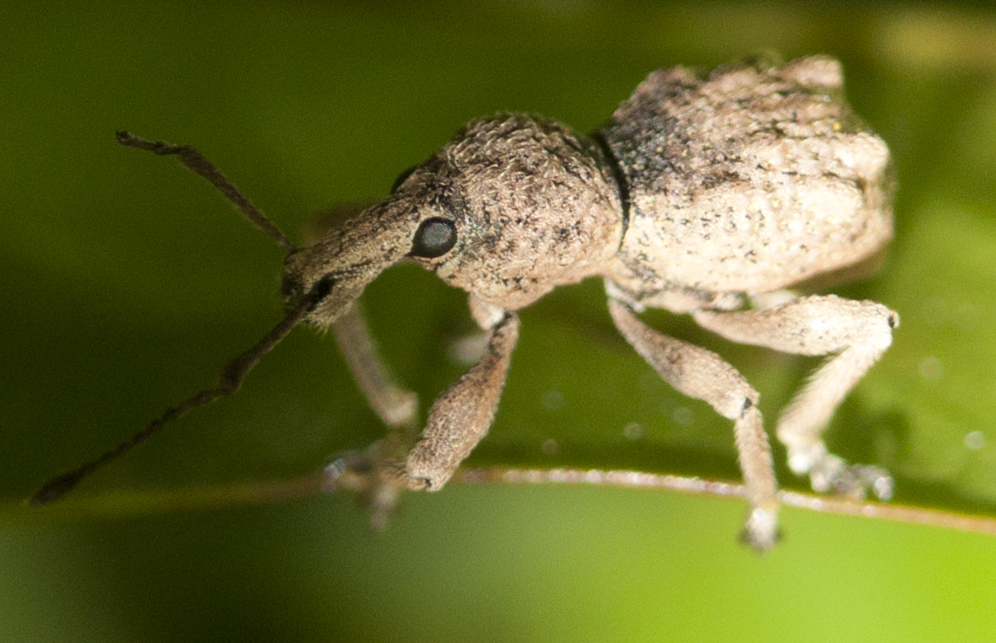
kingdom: Animalia
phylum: Arthropoda
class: Insecta
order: Coleoptera
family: Curculionidae
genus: Leptopius
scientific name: Leptopius tetraphysodes
